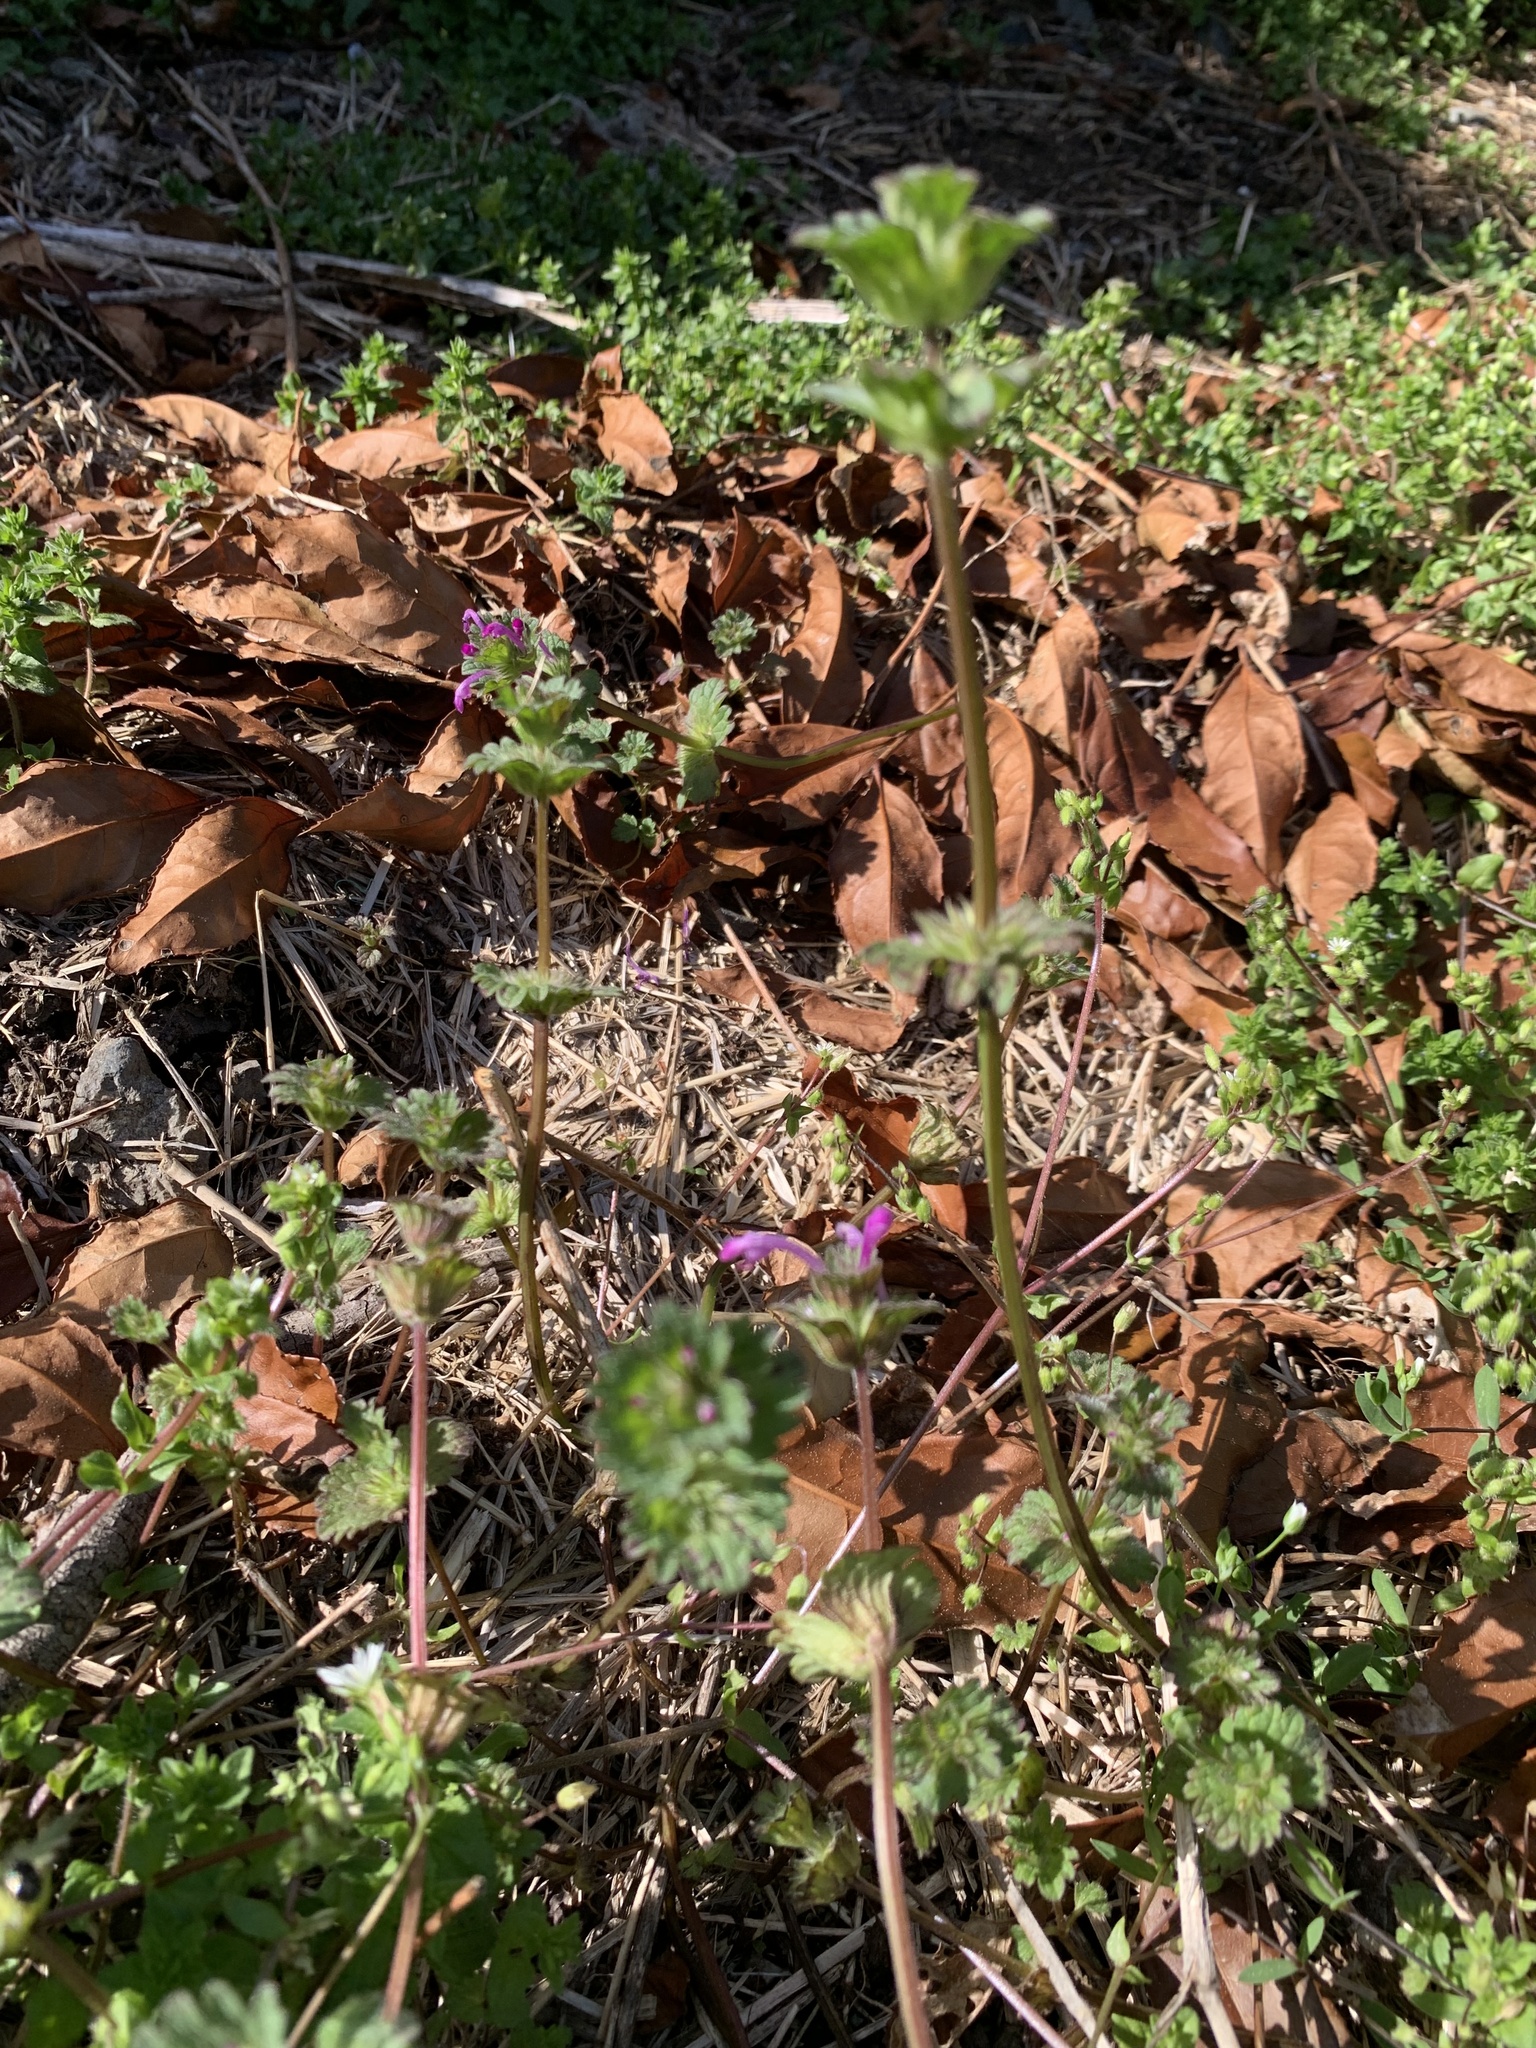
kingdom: Plantae
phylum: Tracheophyta
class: Magnoliopsida
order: Lamiales
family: Lamiaceae
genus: Lamium
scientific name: Lamium amplexicaule
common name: Henbit dead-nettle
